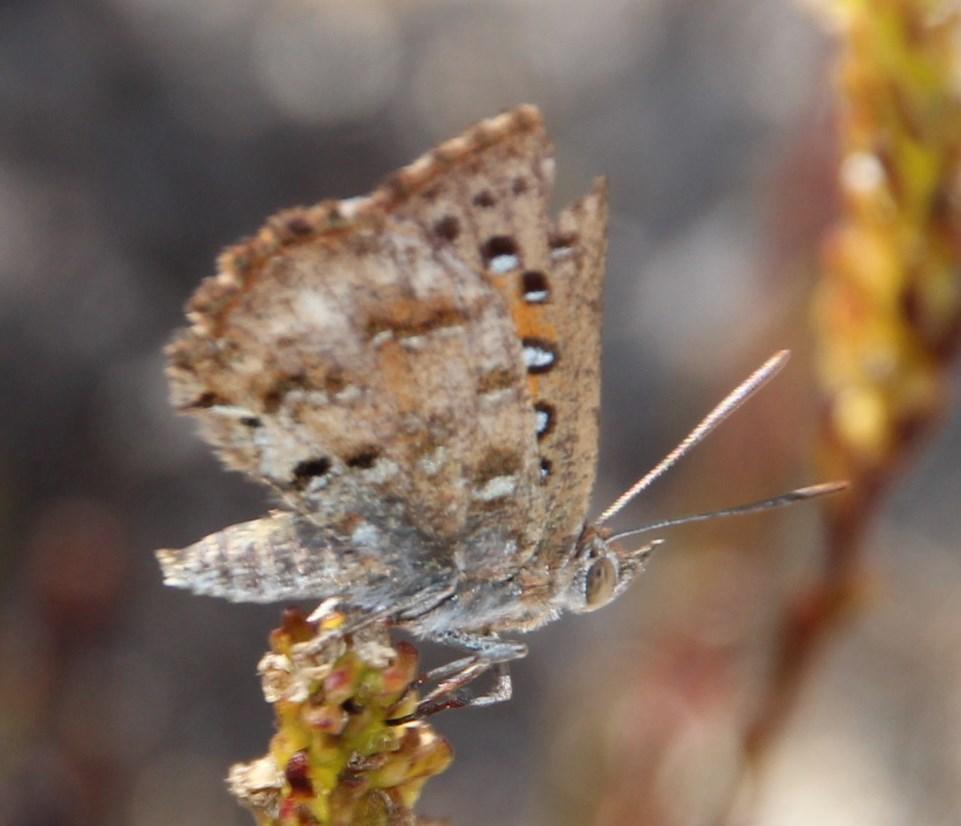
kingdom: Animalia
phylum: Arthropoda
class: Insecta
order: Lepidoptera
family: Lycaenidae
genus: Aloeides
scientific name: Aloeides pierus
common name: Dull copper
